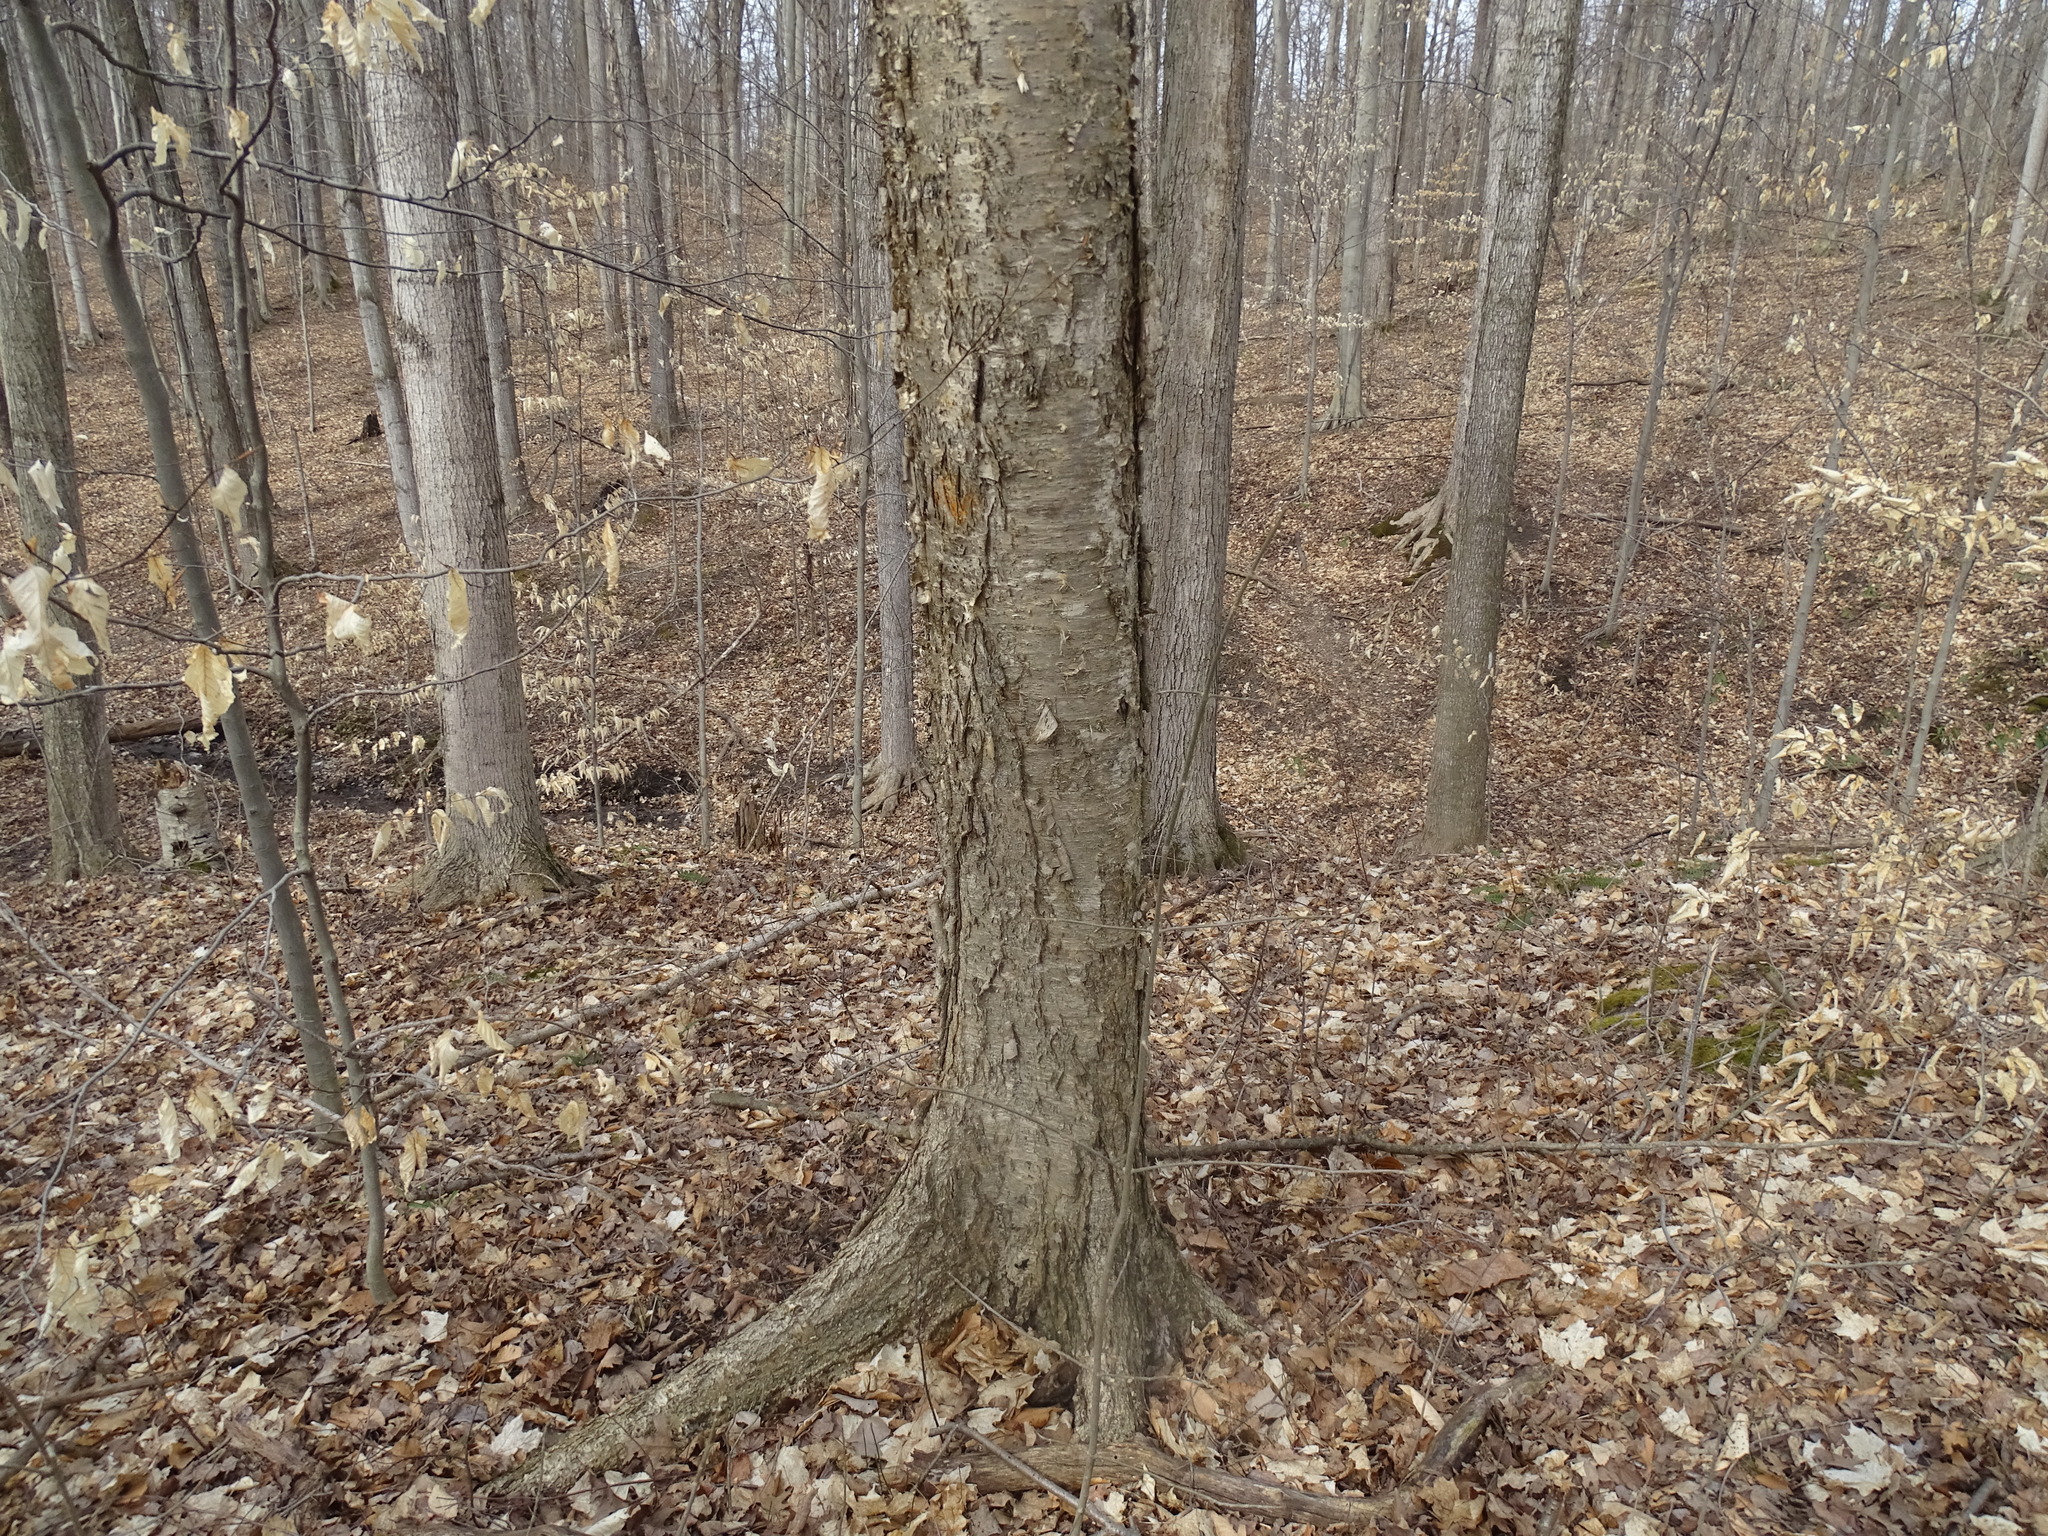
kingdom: Plantae
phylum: Tracheophyta
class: Magnoliopsida
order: Fagales
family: Betulaceae
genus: Betula
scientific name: Betula alleghaniensis
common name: Yellow birch
